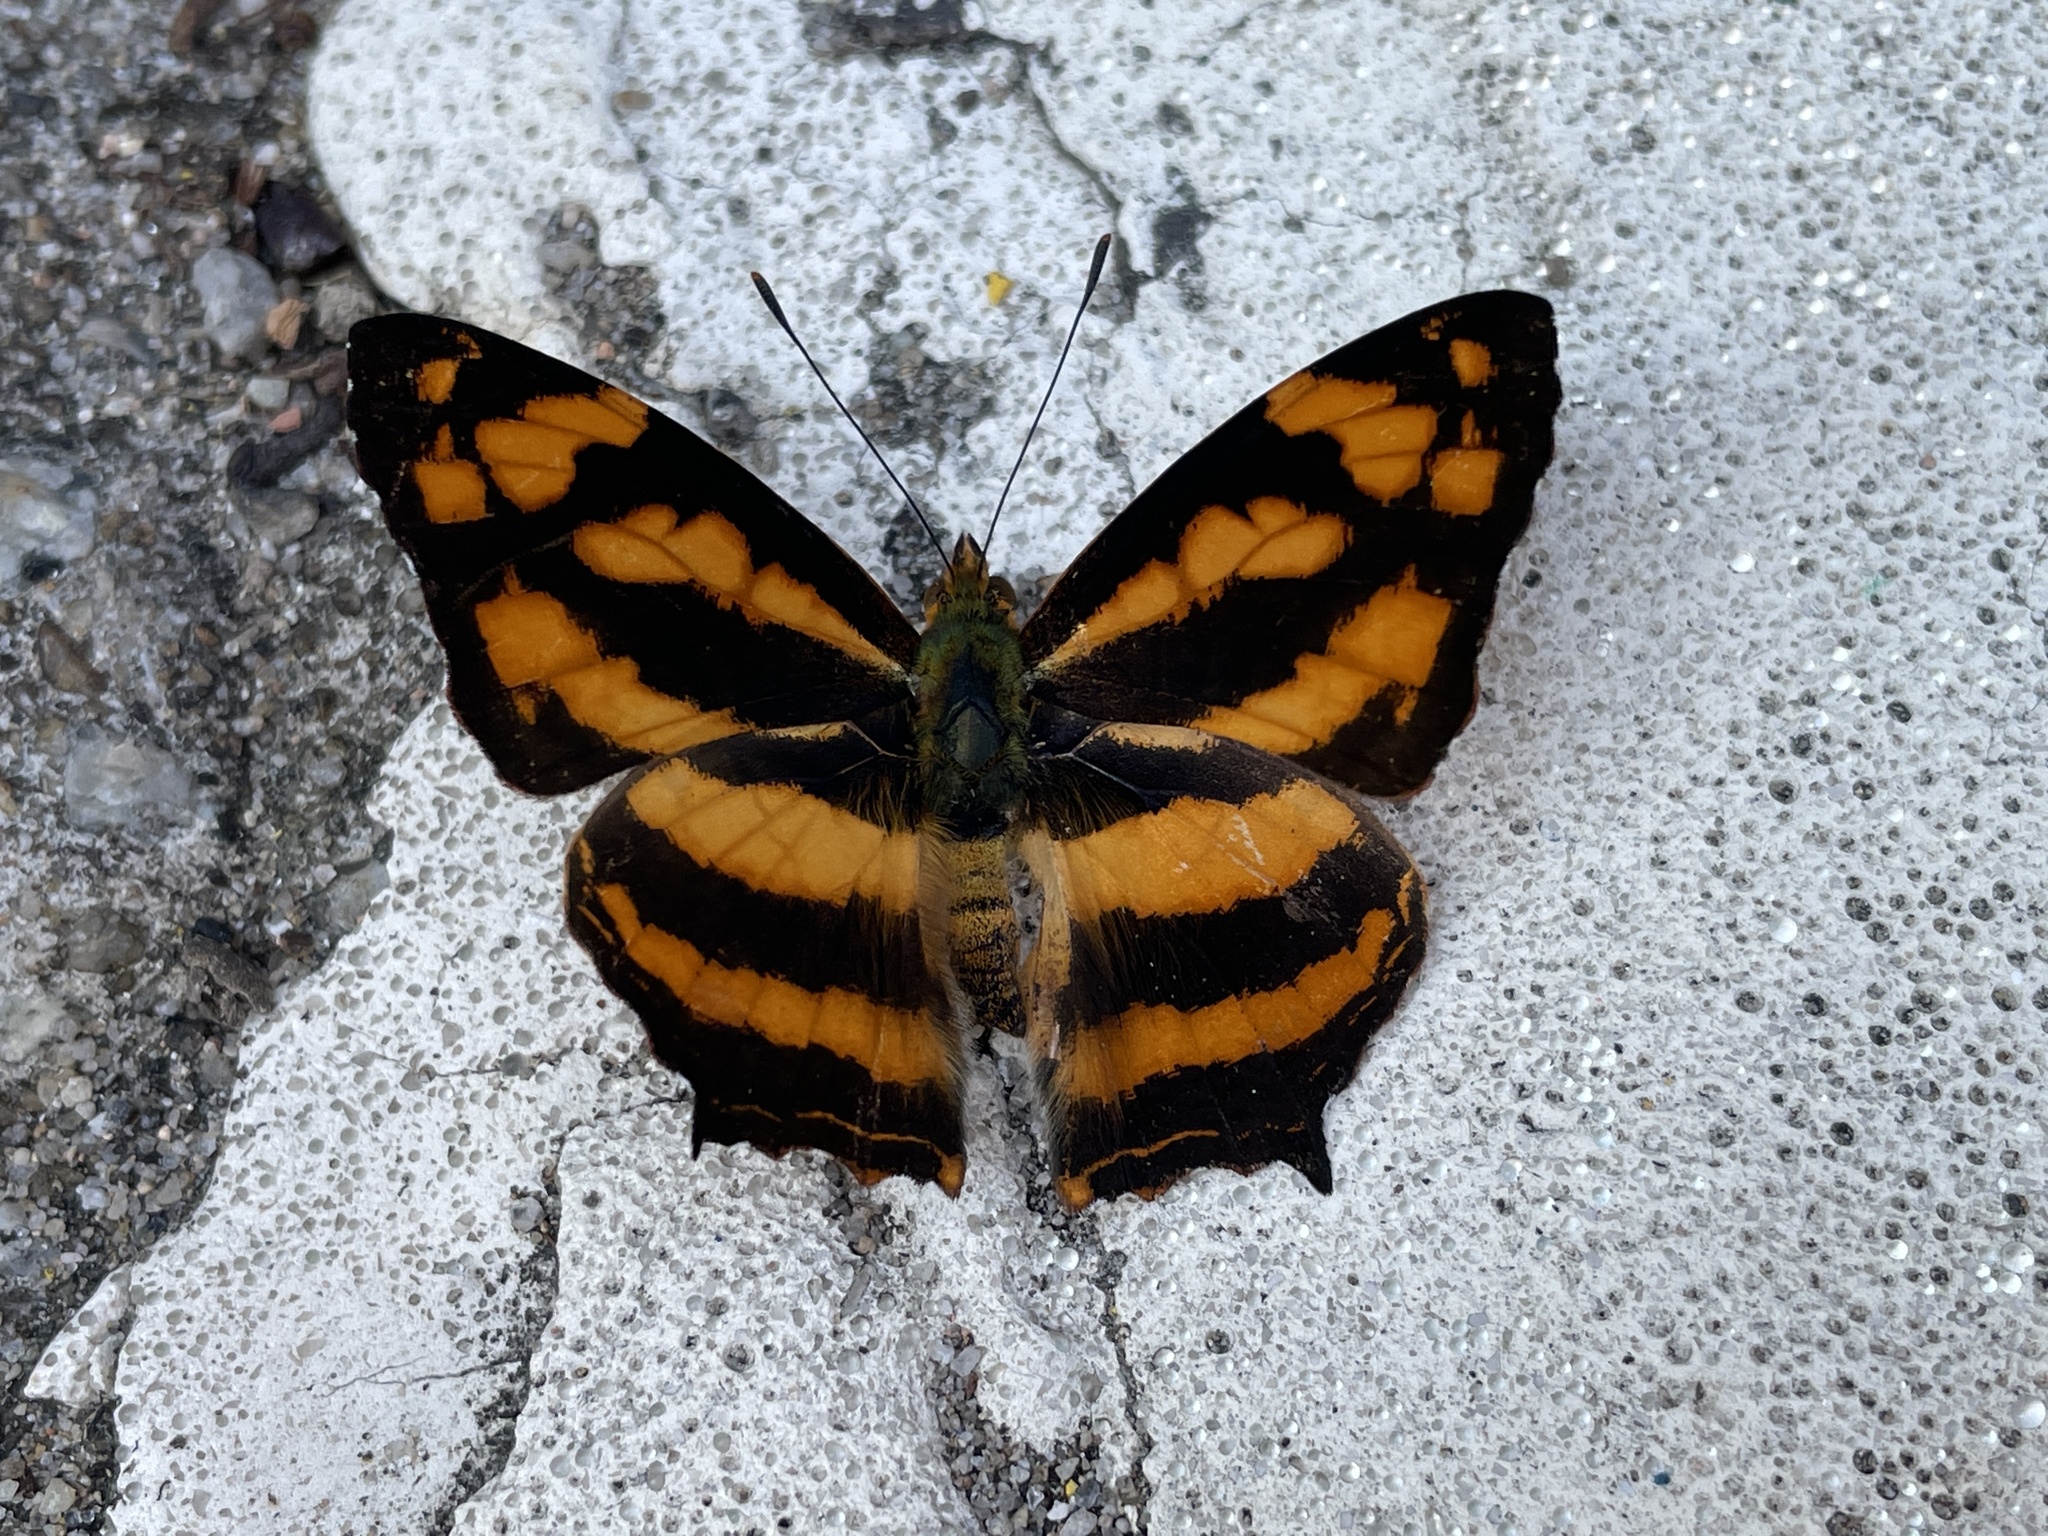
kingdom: Animalia
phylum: Arthropoda
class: Insecta
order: Lepidoptera
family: Nymphalidae
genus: Symbrenthia
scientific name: Symbrenthia hypselis
